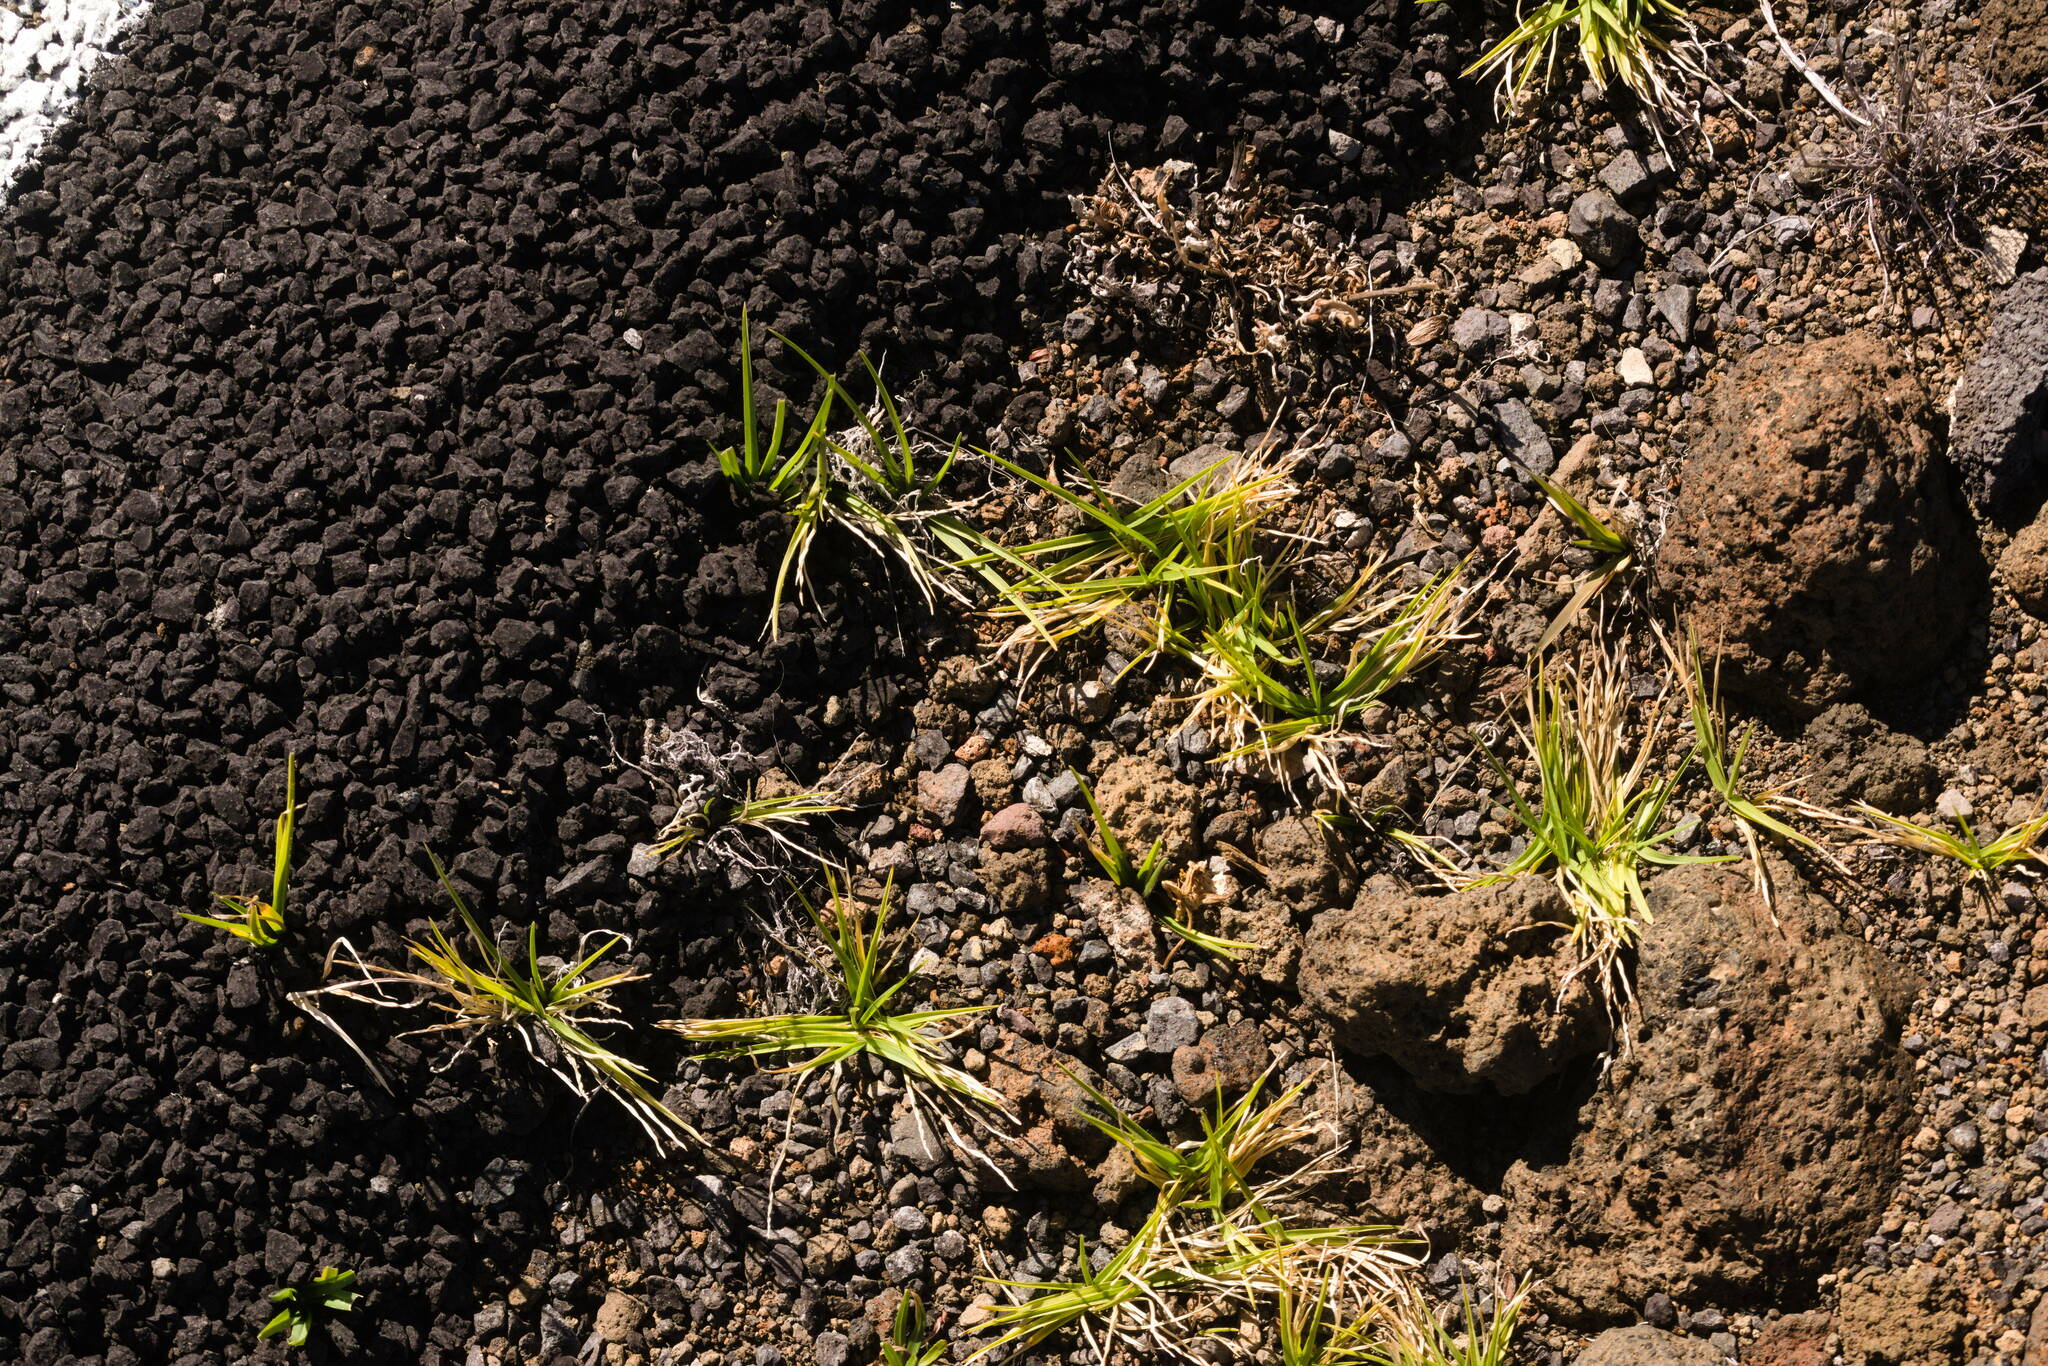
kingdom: Plantae
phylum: Tracheophyta
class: Liliopsida
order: Poales
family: Poaceae
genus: Cenchrus
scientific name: Cenchrus clandestinus
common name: Kikuyugrass
